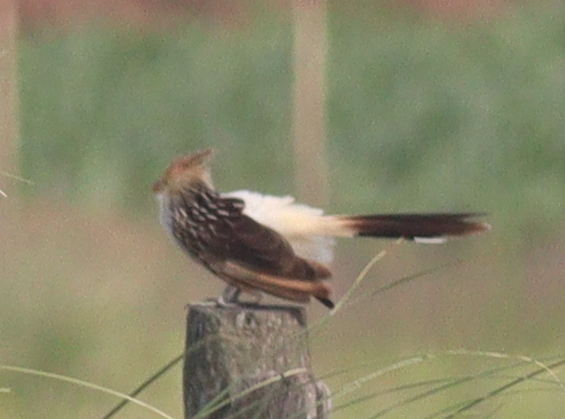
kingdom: Animalia
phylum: Chordata
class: Aves
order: Cuculiformes
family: Cuculidae
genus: Guira
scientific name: Guira guira
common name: Guira cuckoo
